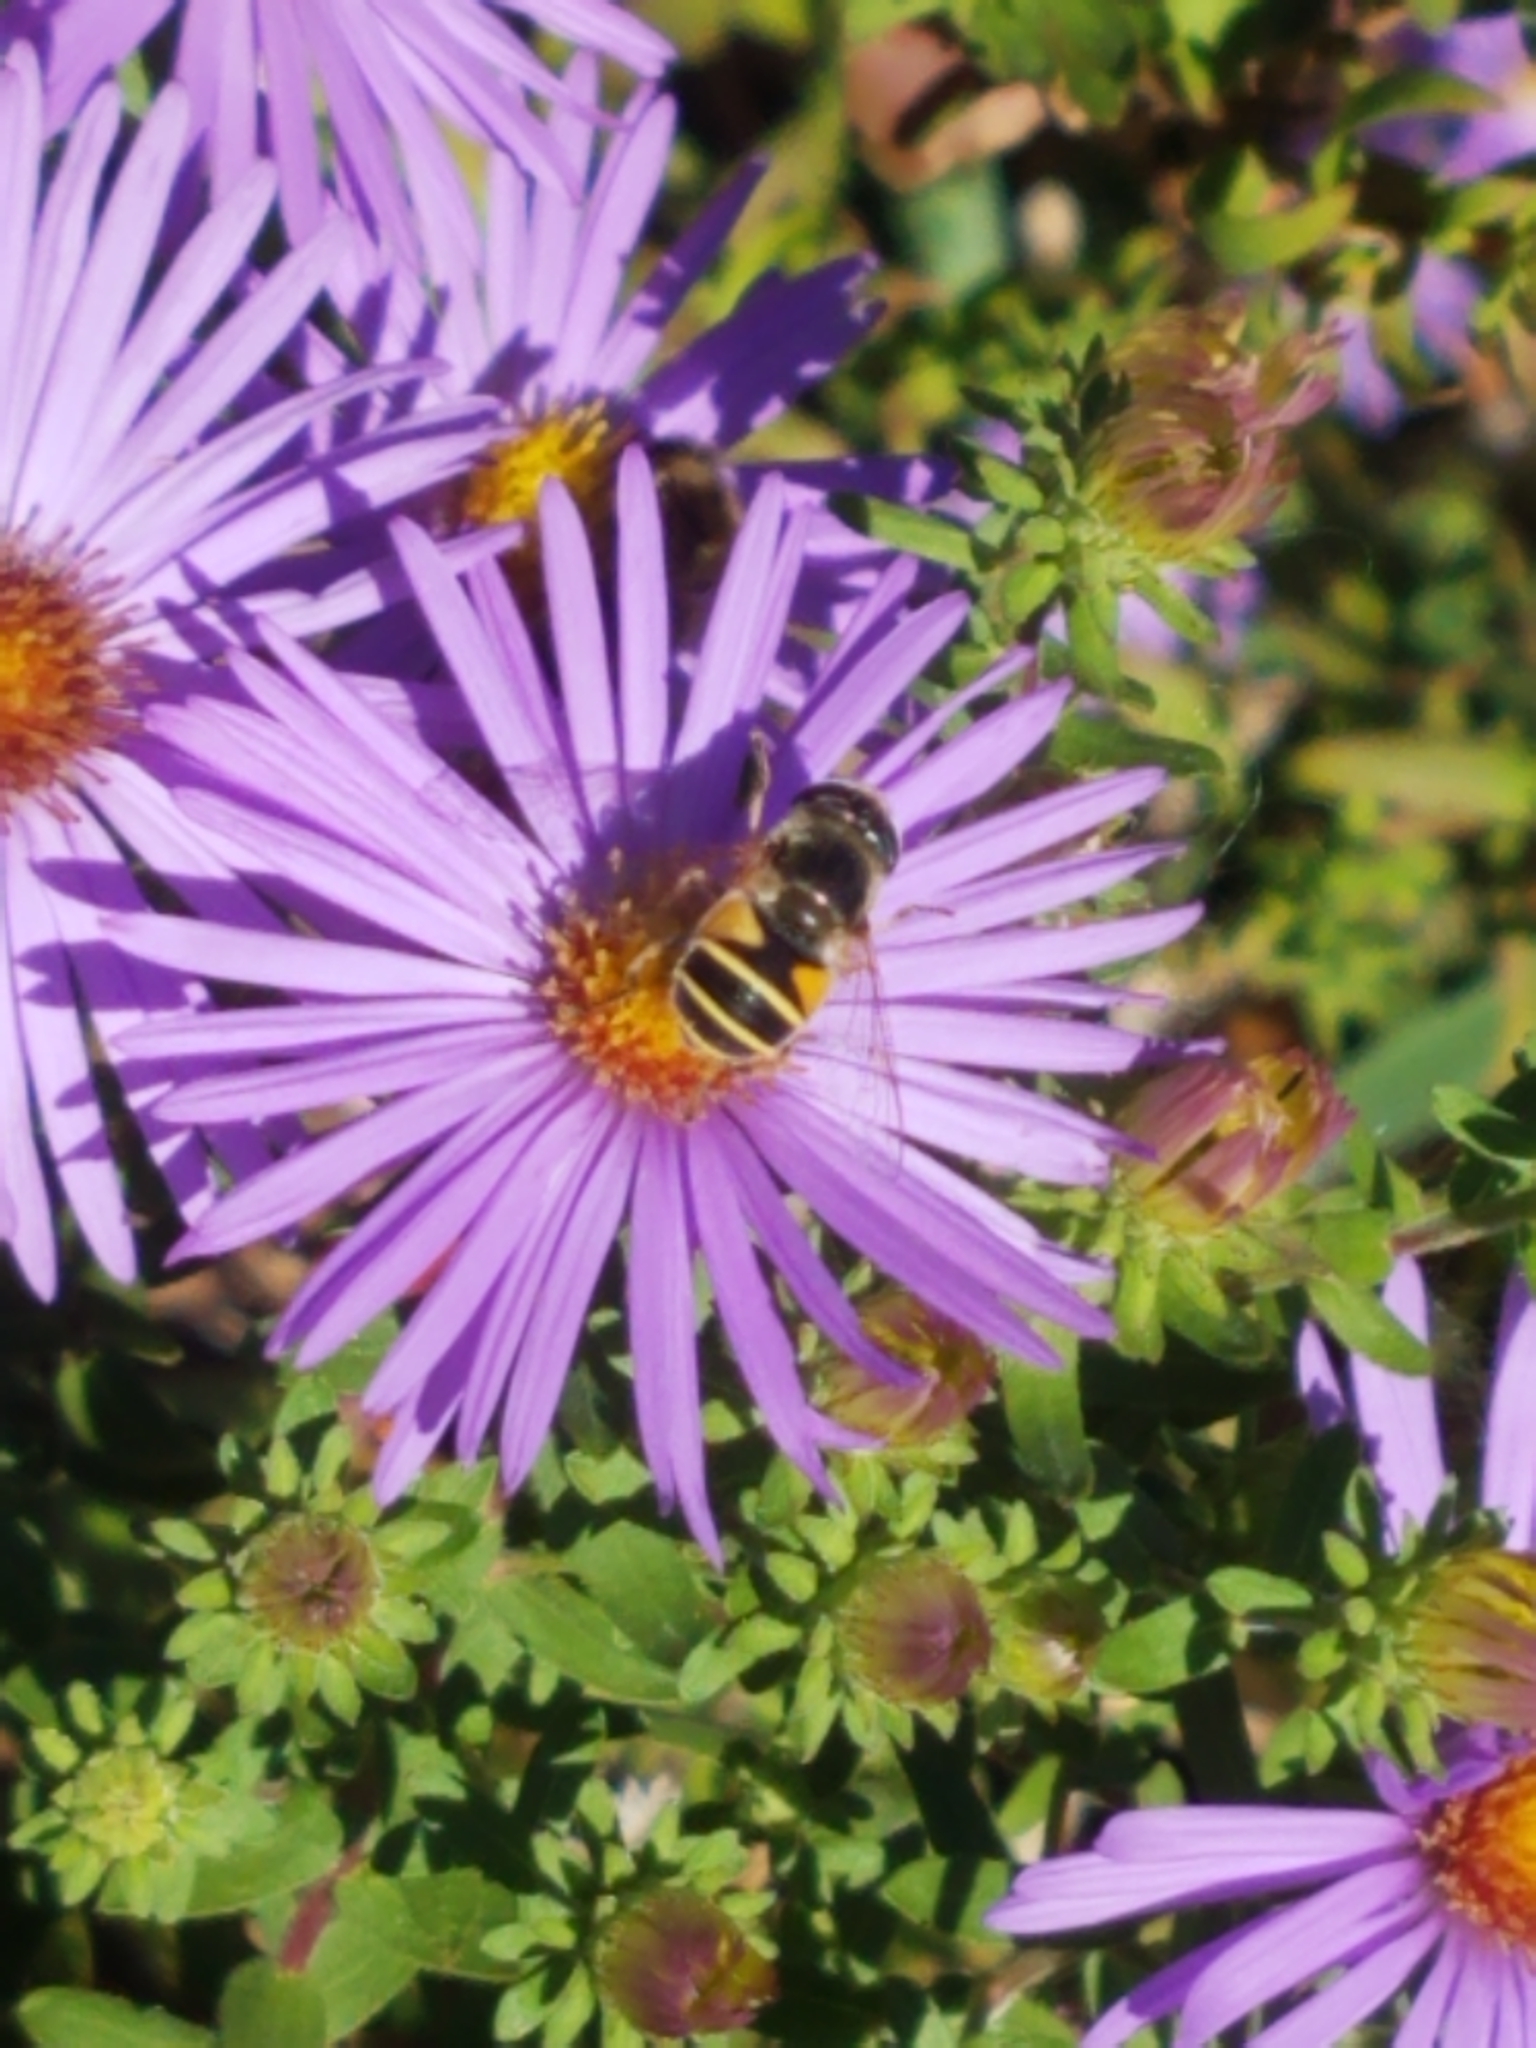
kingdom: Animalia
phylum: Arthropoda
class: Insecta
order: Diptera
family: Syrphidae
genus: Eristalis
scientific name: Eristalis hirta
